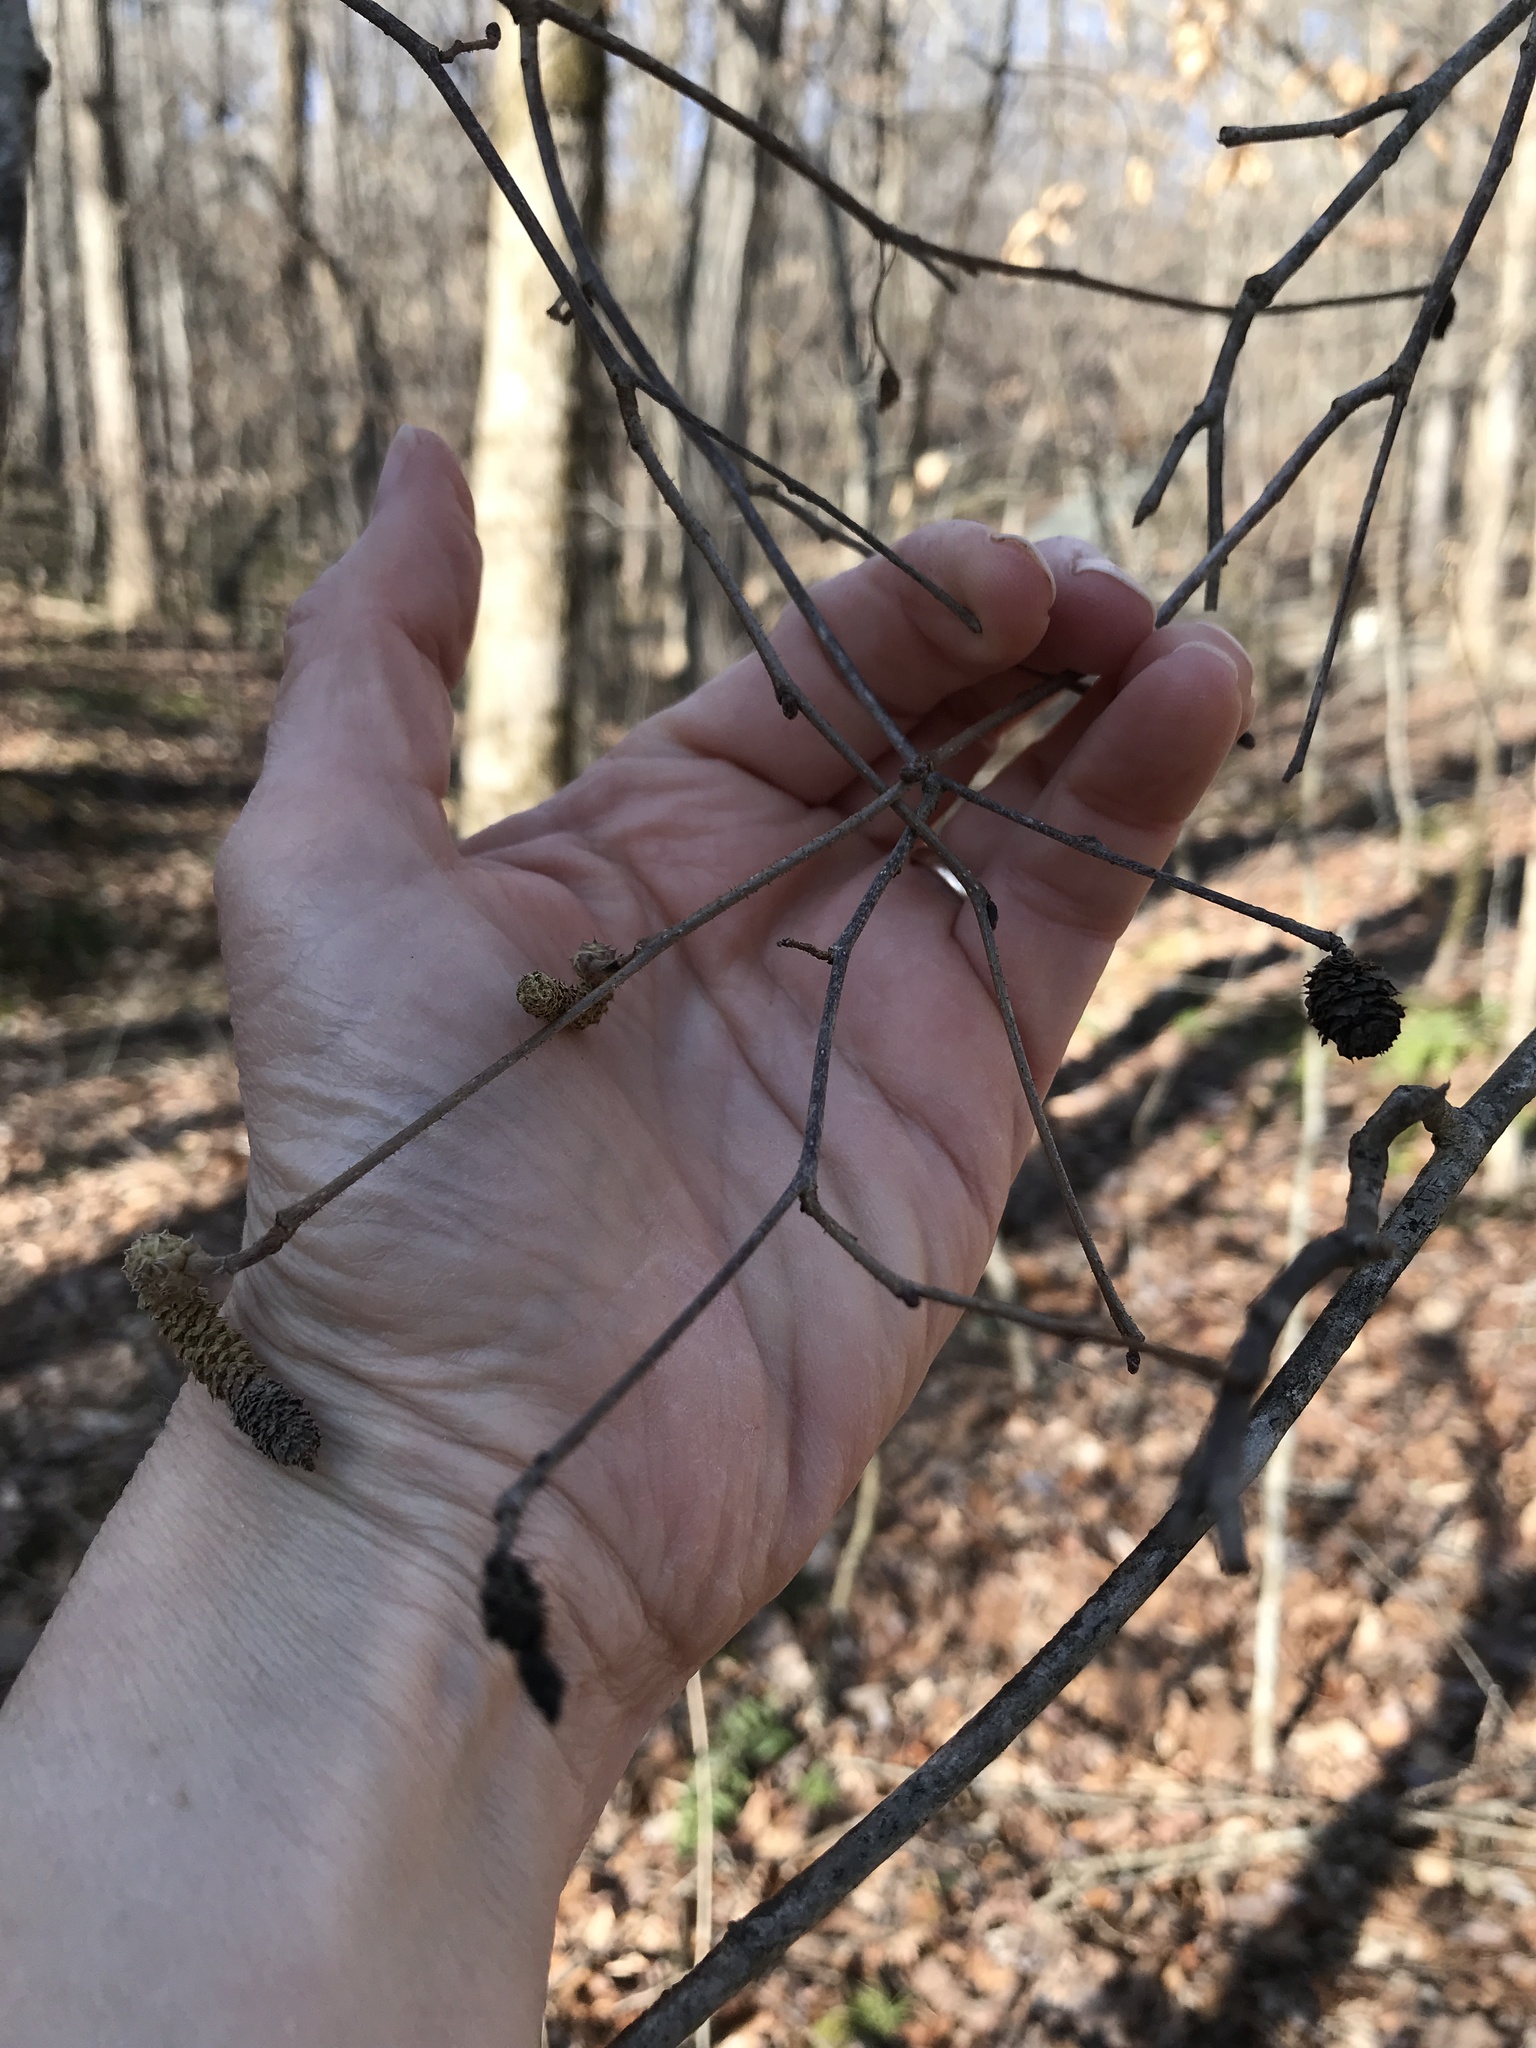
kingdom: Plantae
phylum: Tracheophyta
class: Magnoliopsida
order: Fagales
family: Betulaceae
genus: Corylus
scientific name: Corylus americana
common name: American hazel
